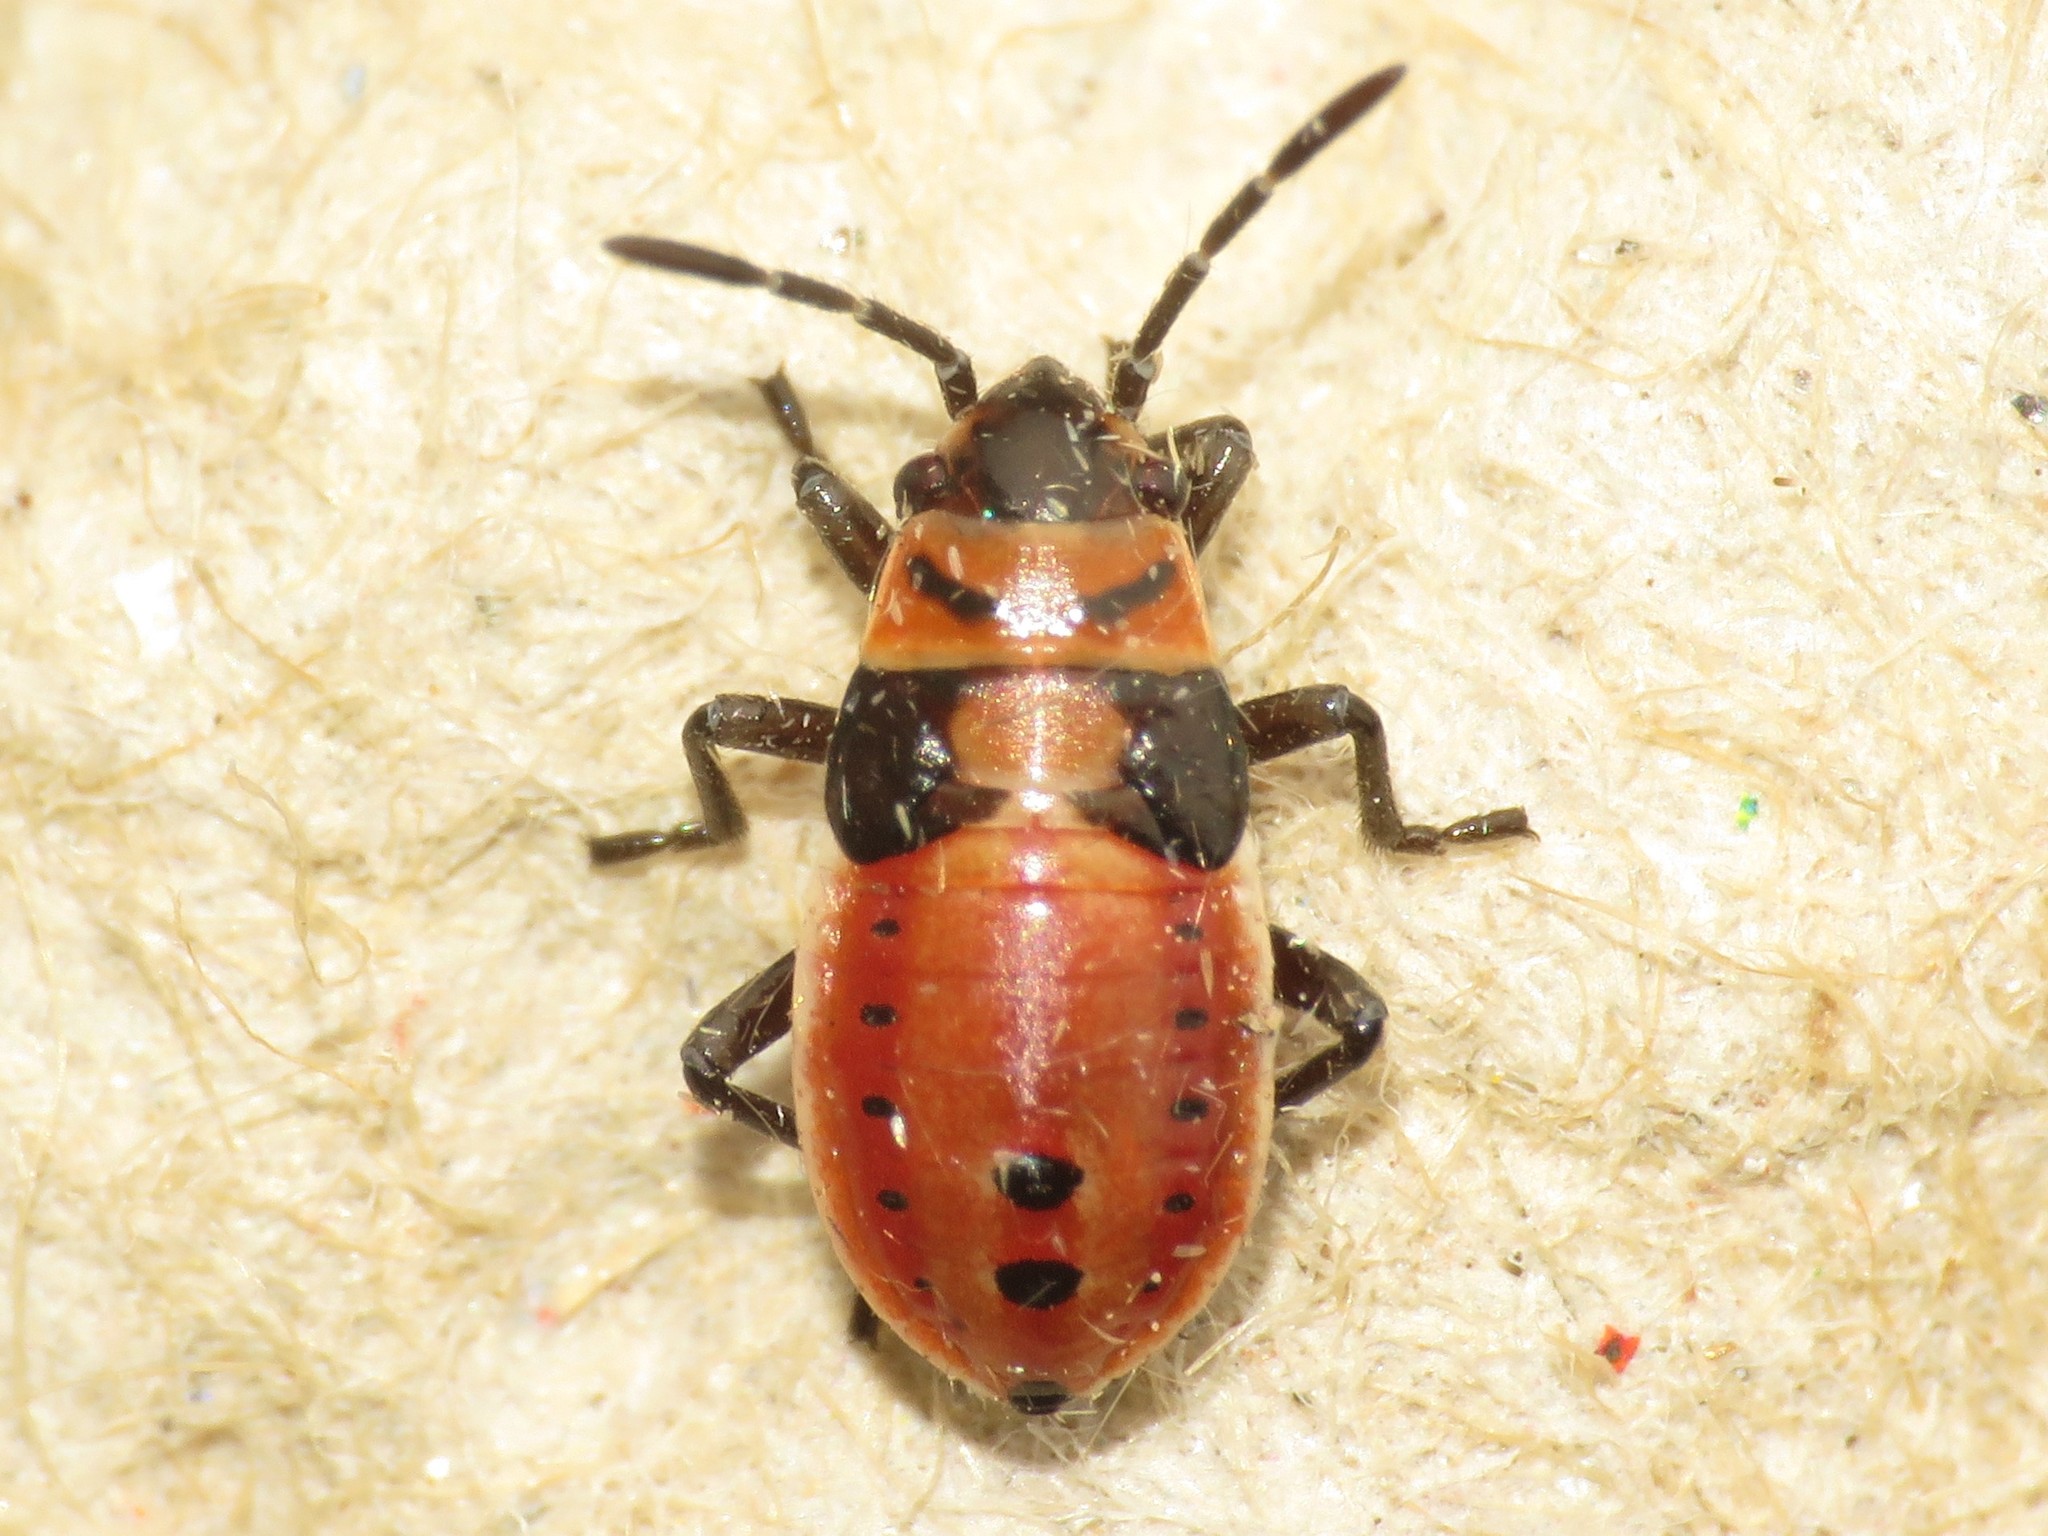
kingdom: Animalia
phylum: Arthropoda
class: Insecta
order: Hemiptera
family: Lygaeidae
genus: Lygaeus
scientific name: Lygaeus kalmii
